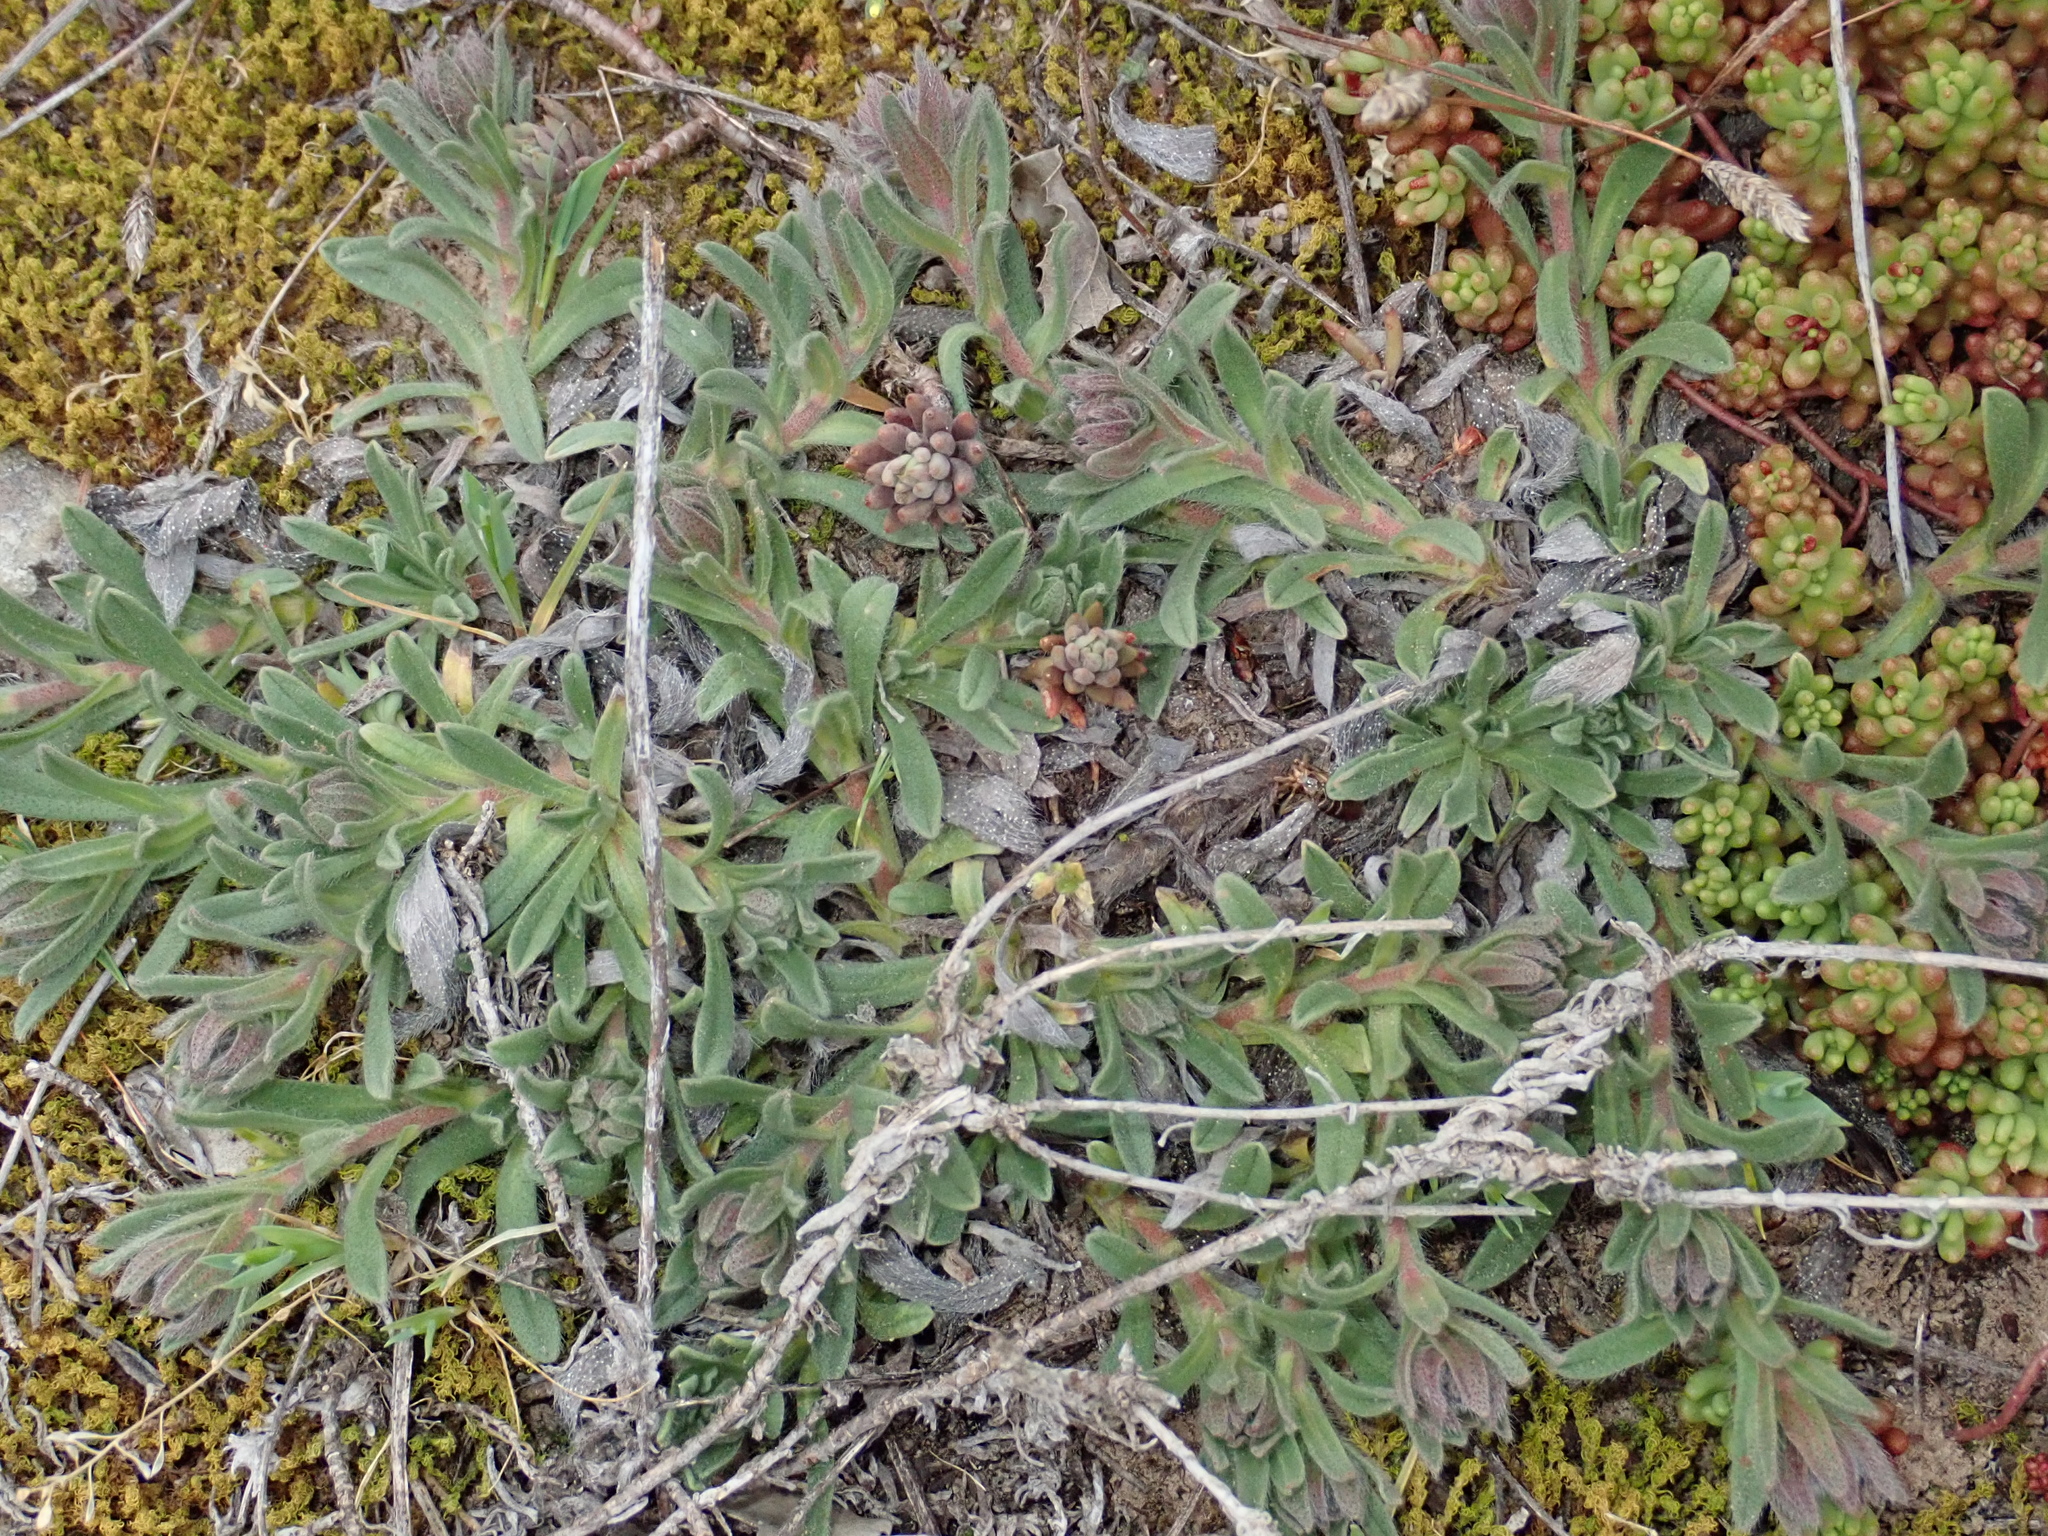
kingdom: Plantae
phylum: Tracheophyta
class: Magnoliopsida
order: Boraginales
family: Boraginaceae
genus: Alkanna
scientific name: Alkanna tinctoria
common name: Dyer's-alkanet
